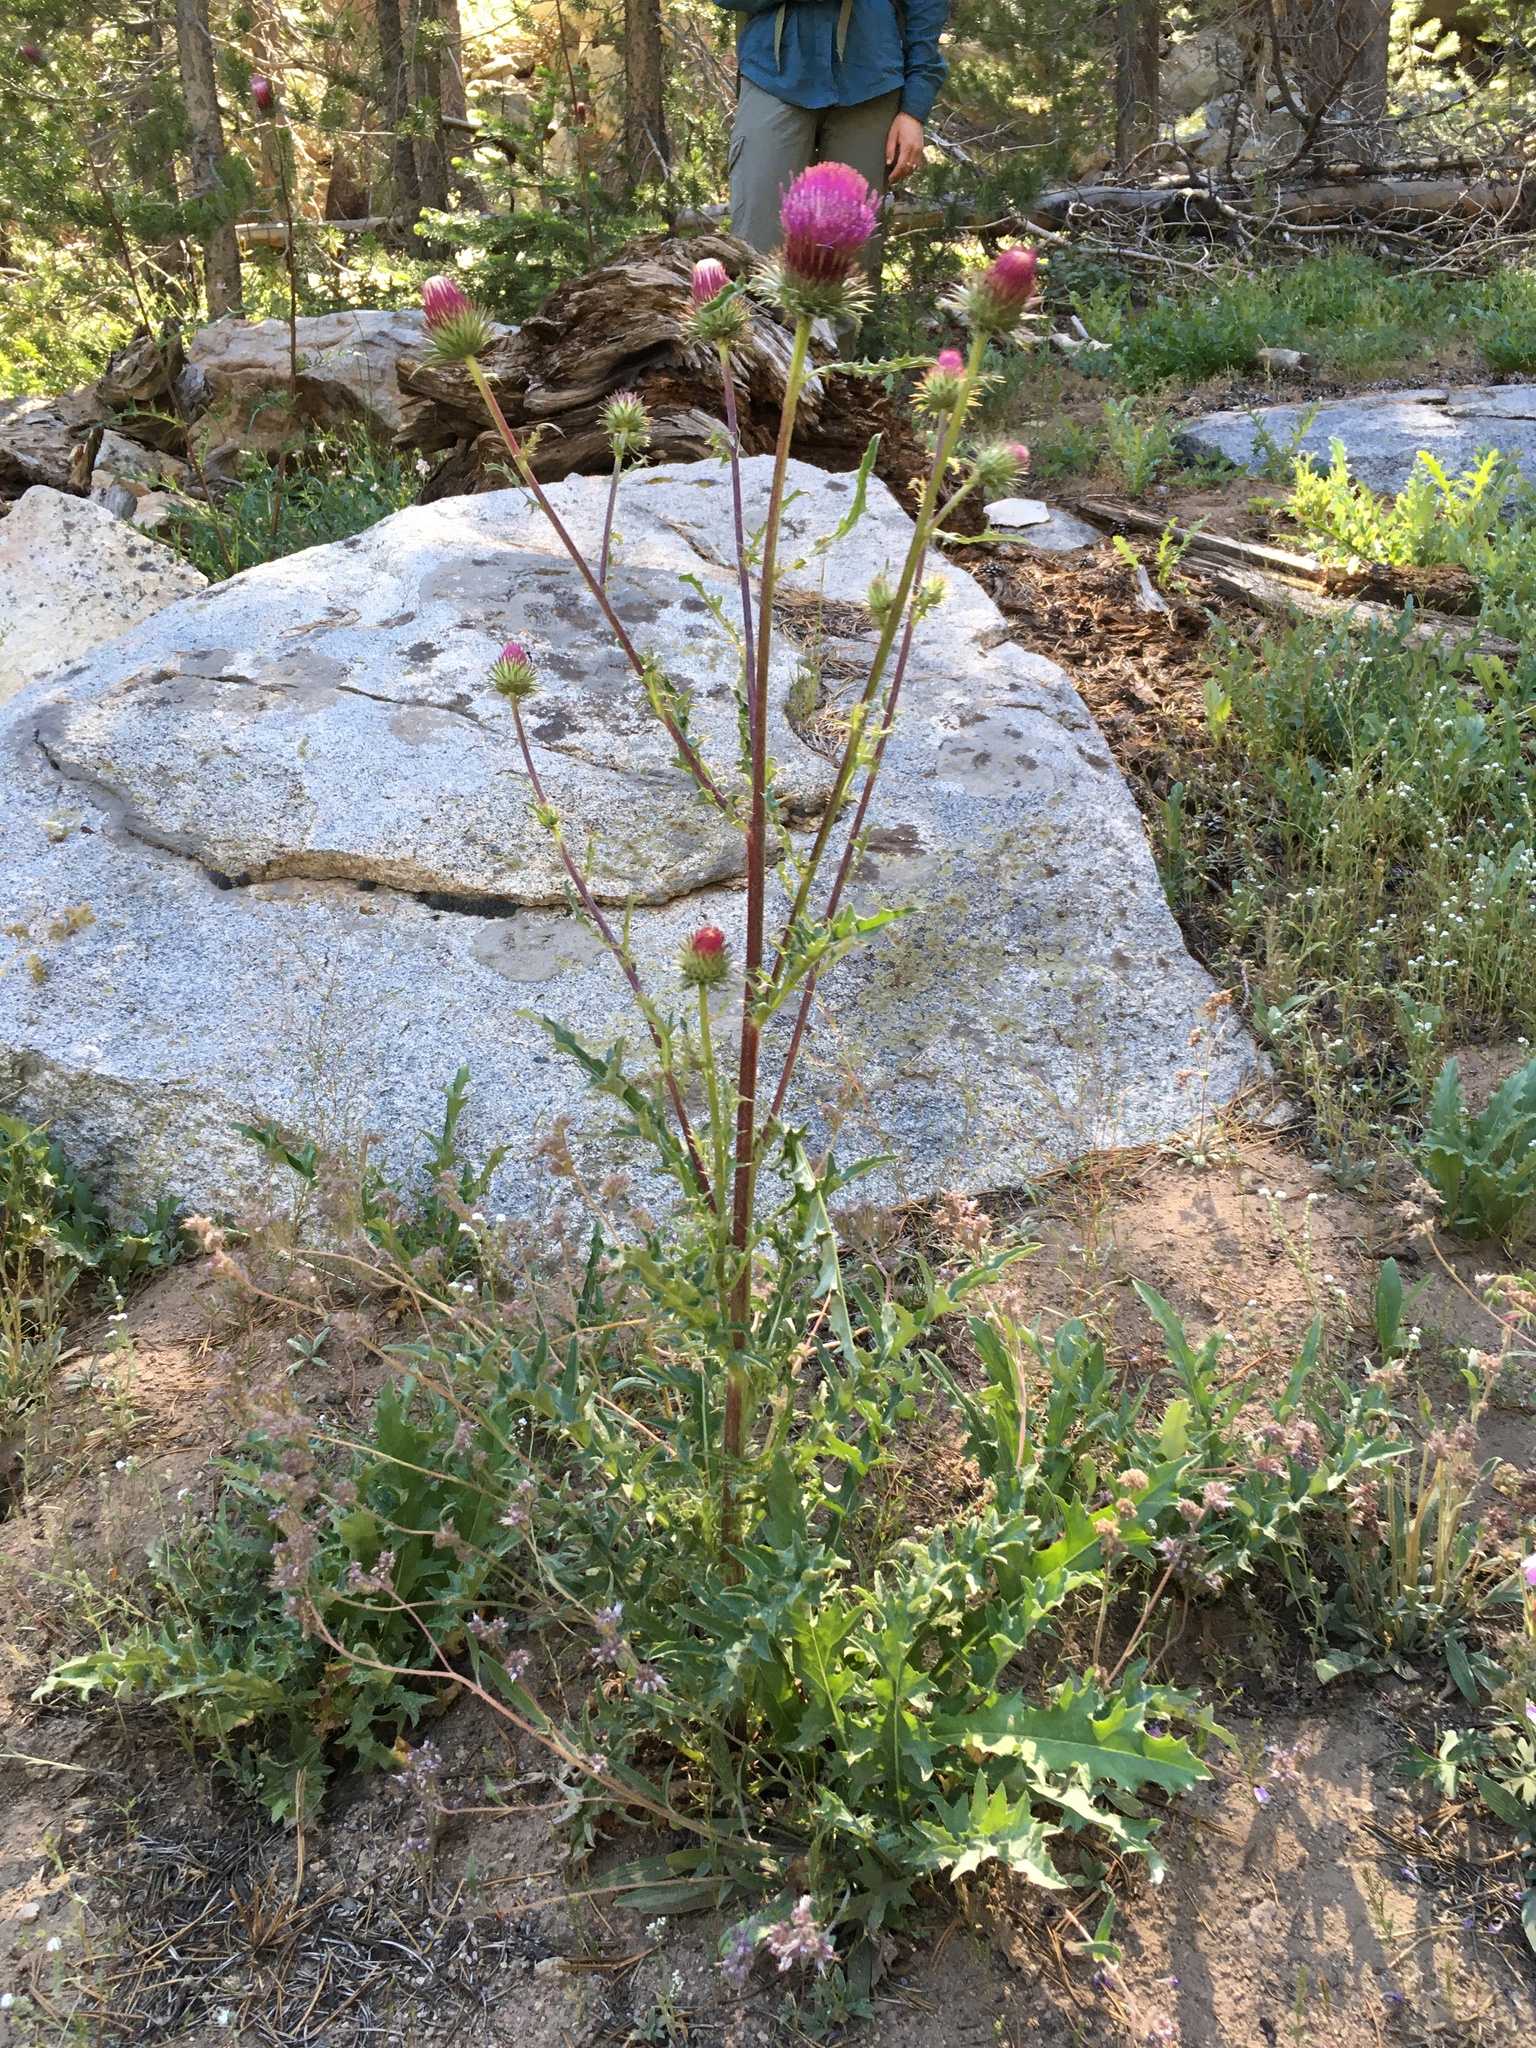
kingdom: Plantae
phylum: Tracheophyta
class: Magnoliopsida
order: Asterales
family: Asteraceae
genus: Cirsium
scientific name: Cirsium andersonii
